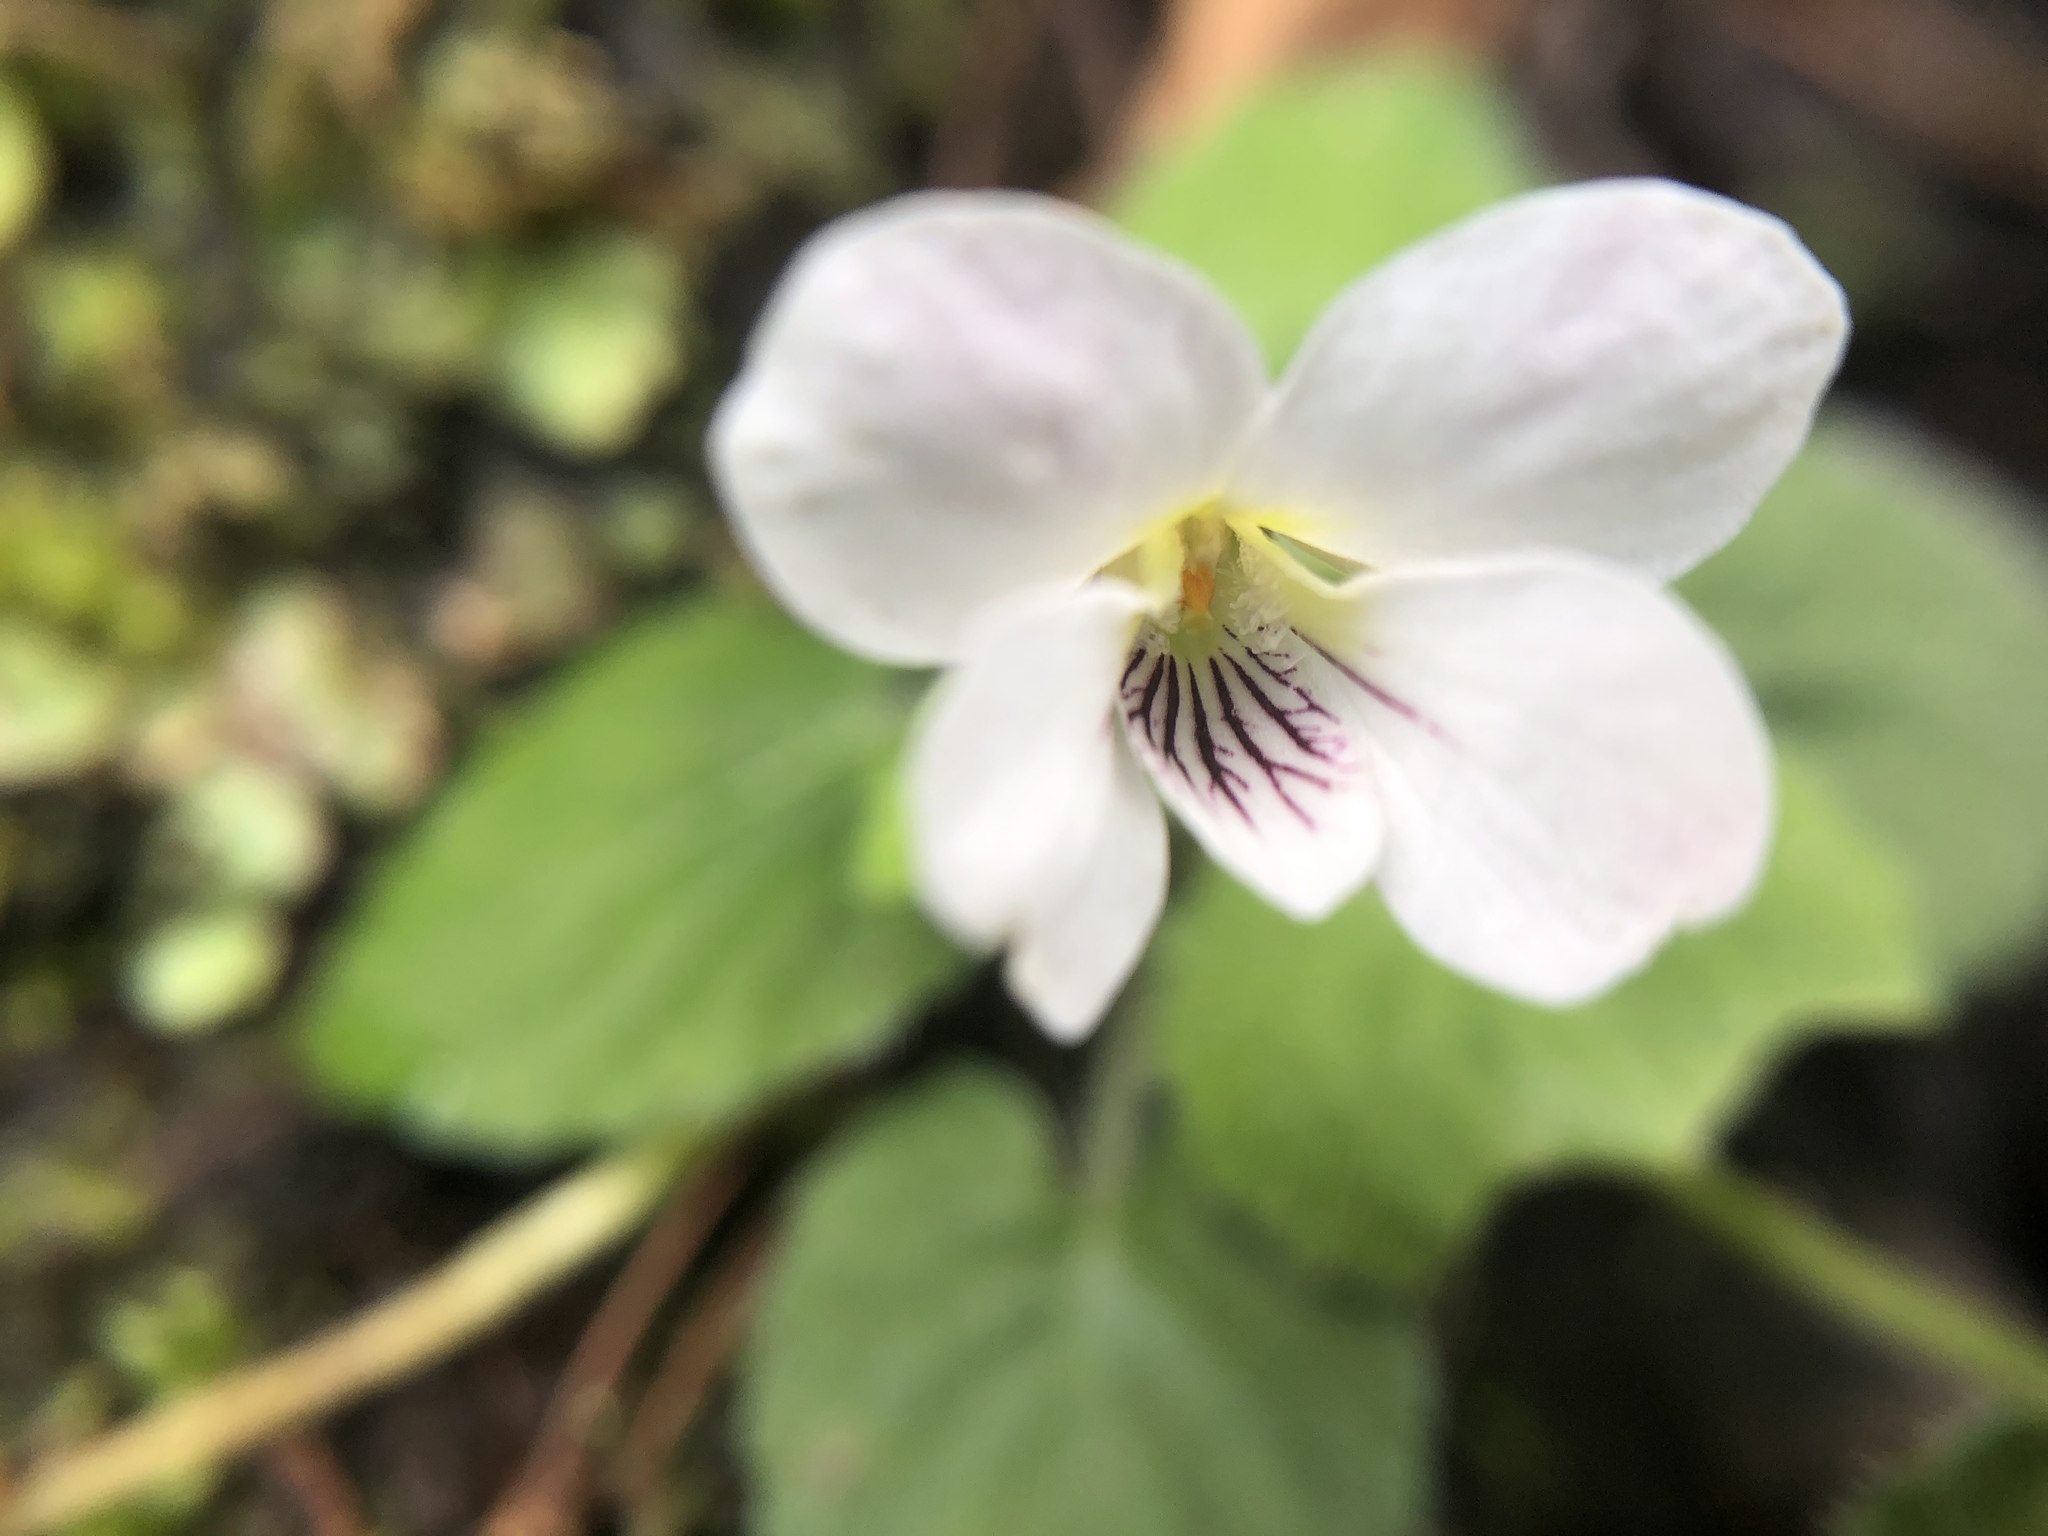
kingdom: Plantae
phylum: Tracheophyta
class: Magnoliopsida
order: Malpighiales
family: Violaceae
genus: Viola
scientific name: Viola adenothrix
